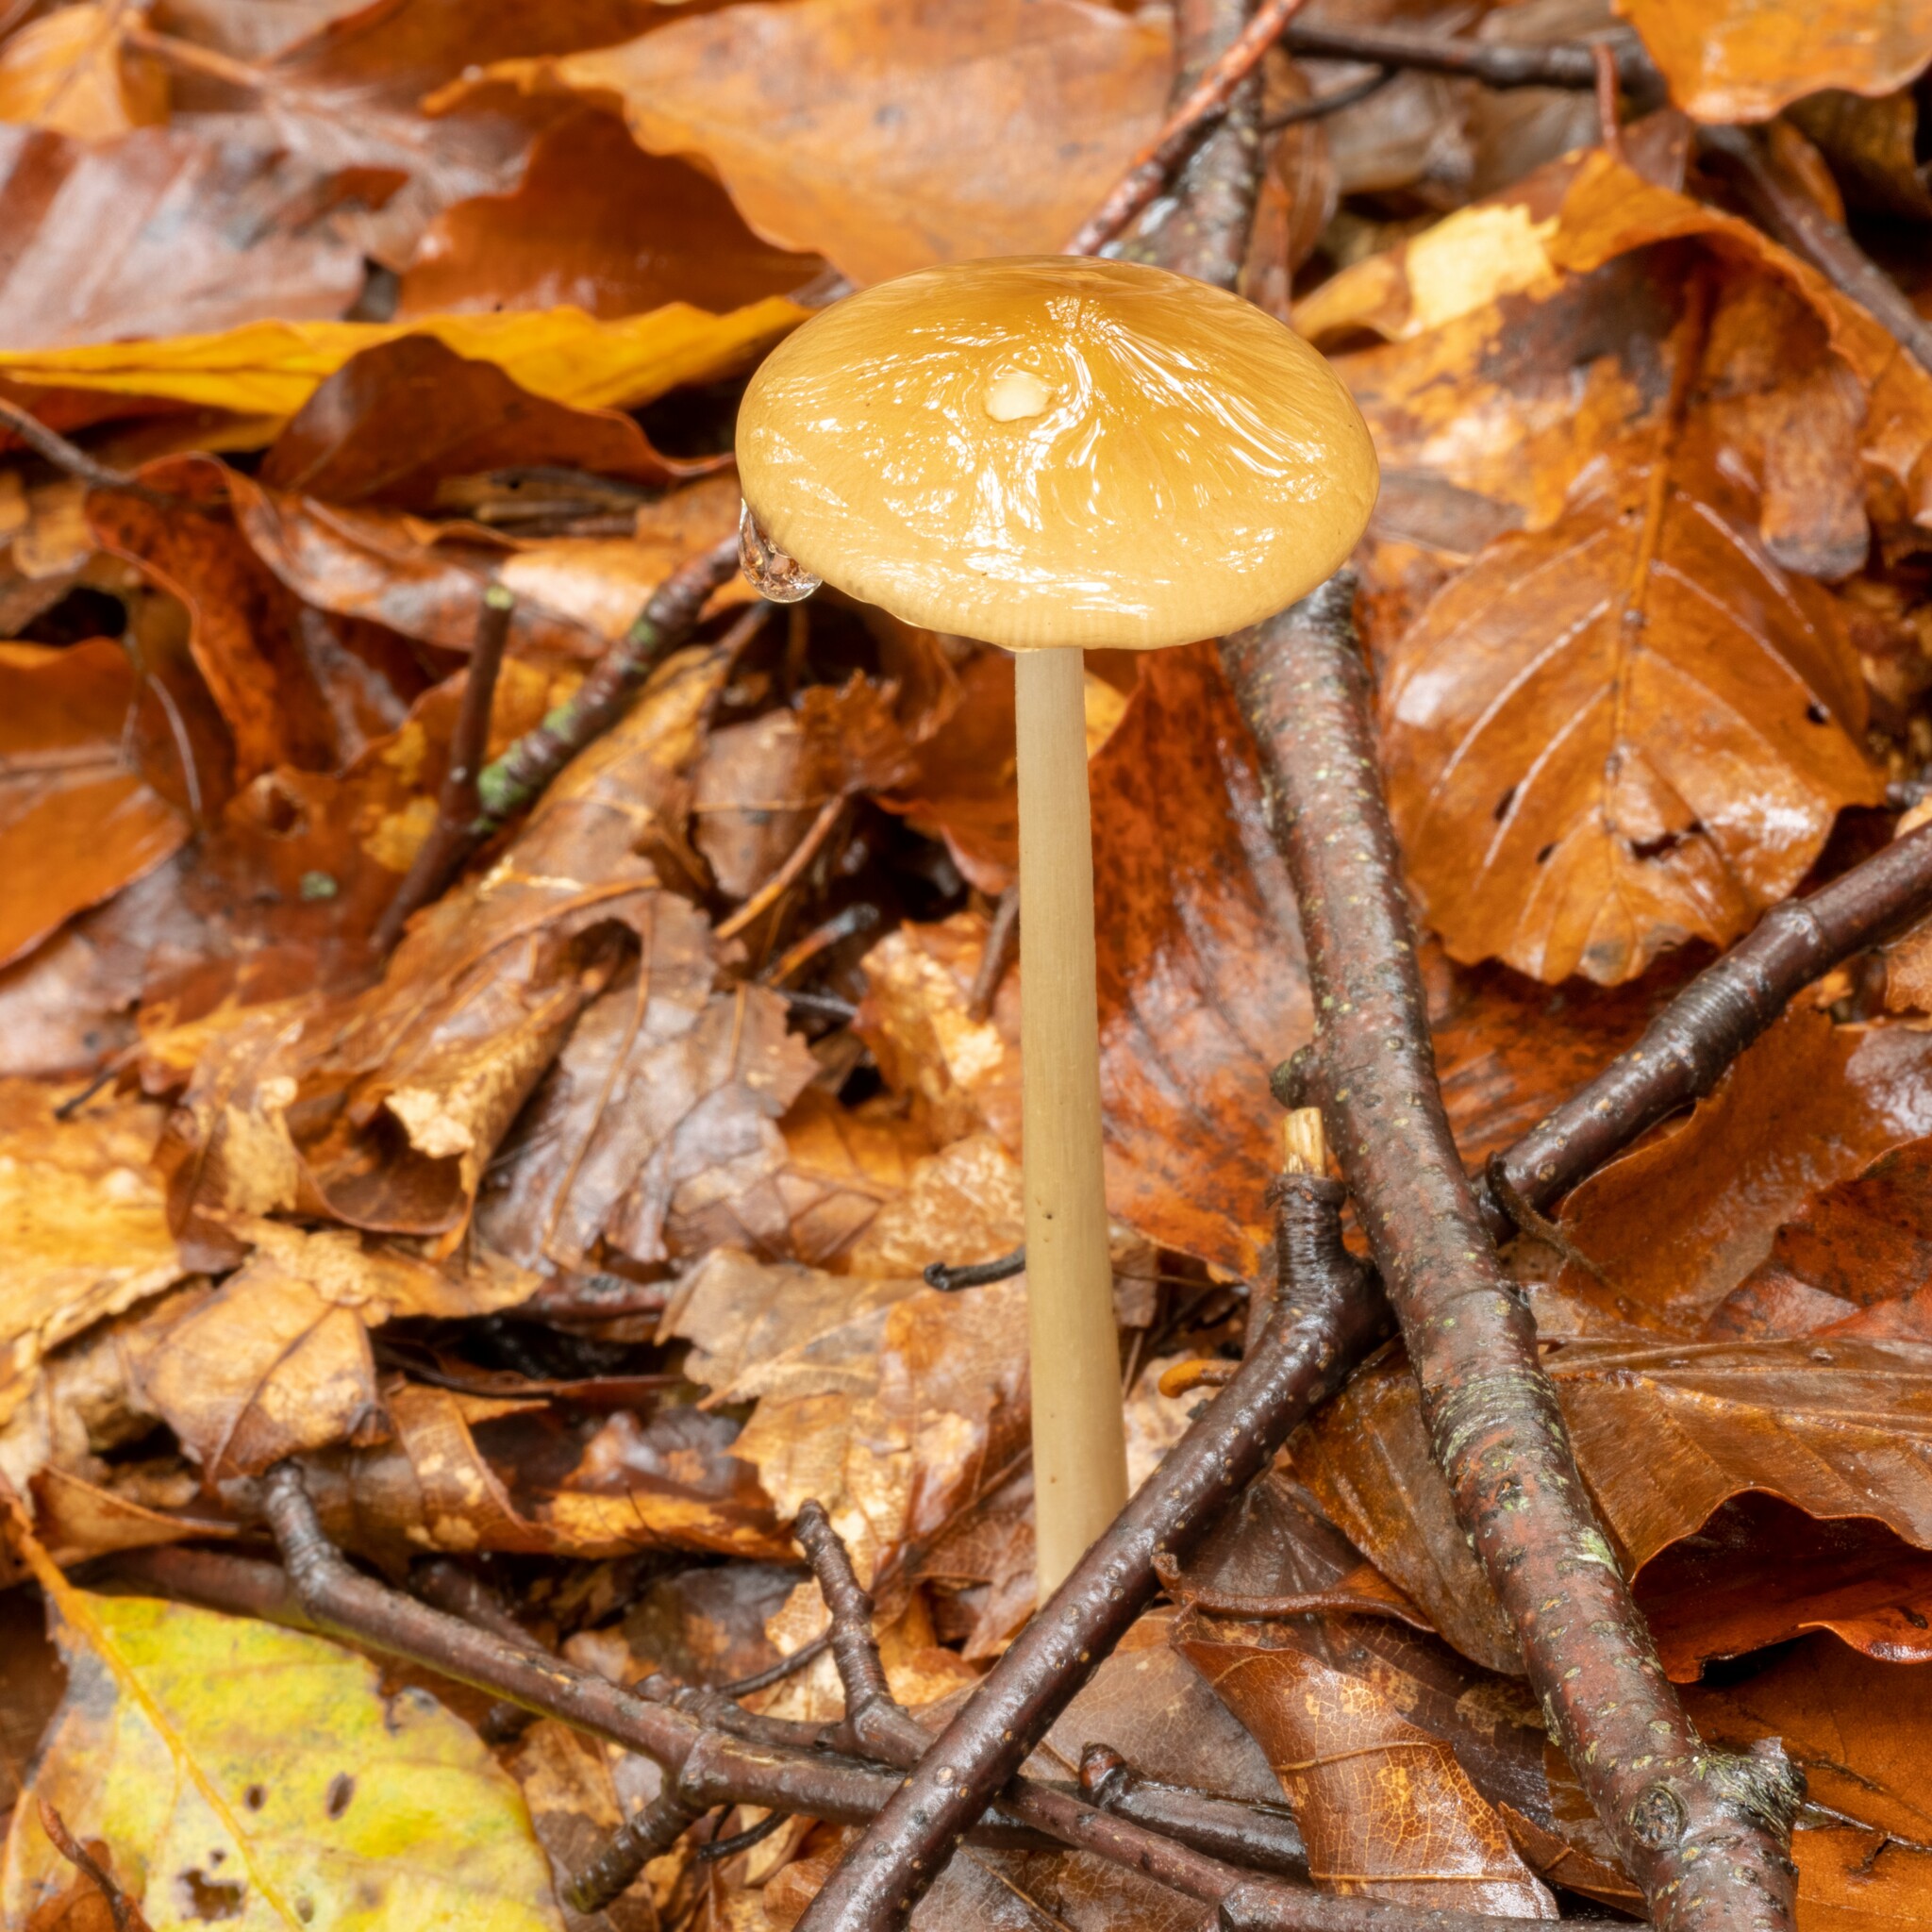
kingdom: Fungi
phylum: Basidiomycota
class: Agaricomycetes
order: Agaricales
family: Physalacriaceae
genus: Hymenopellis
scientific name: Hymenopellis radicata
